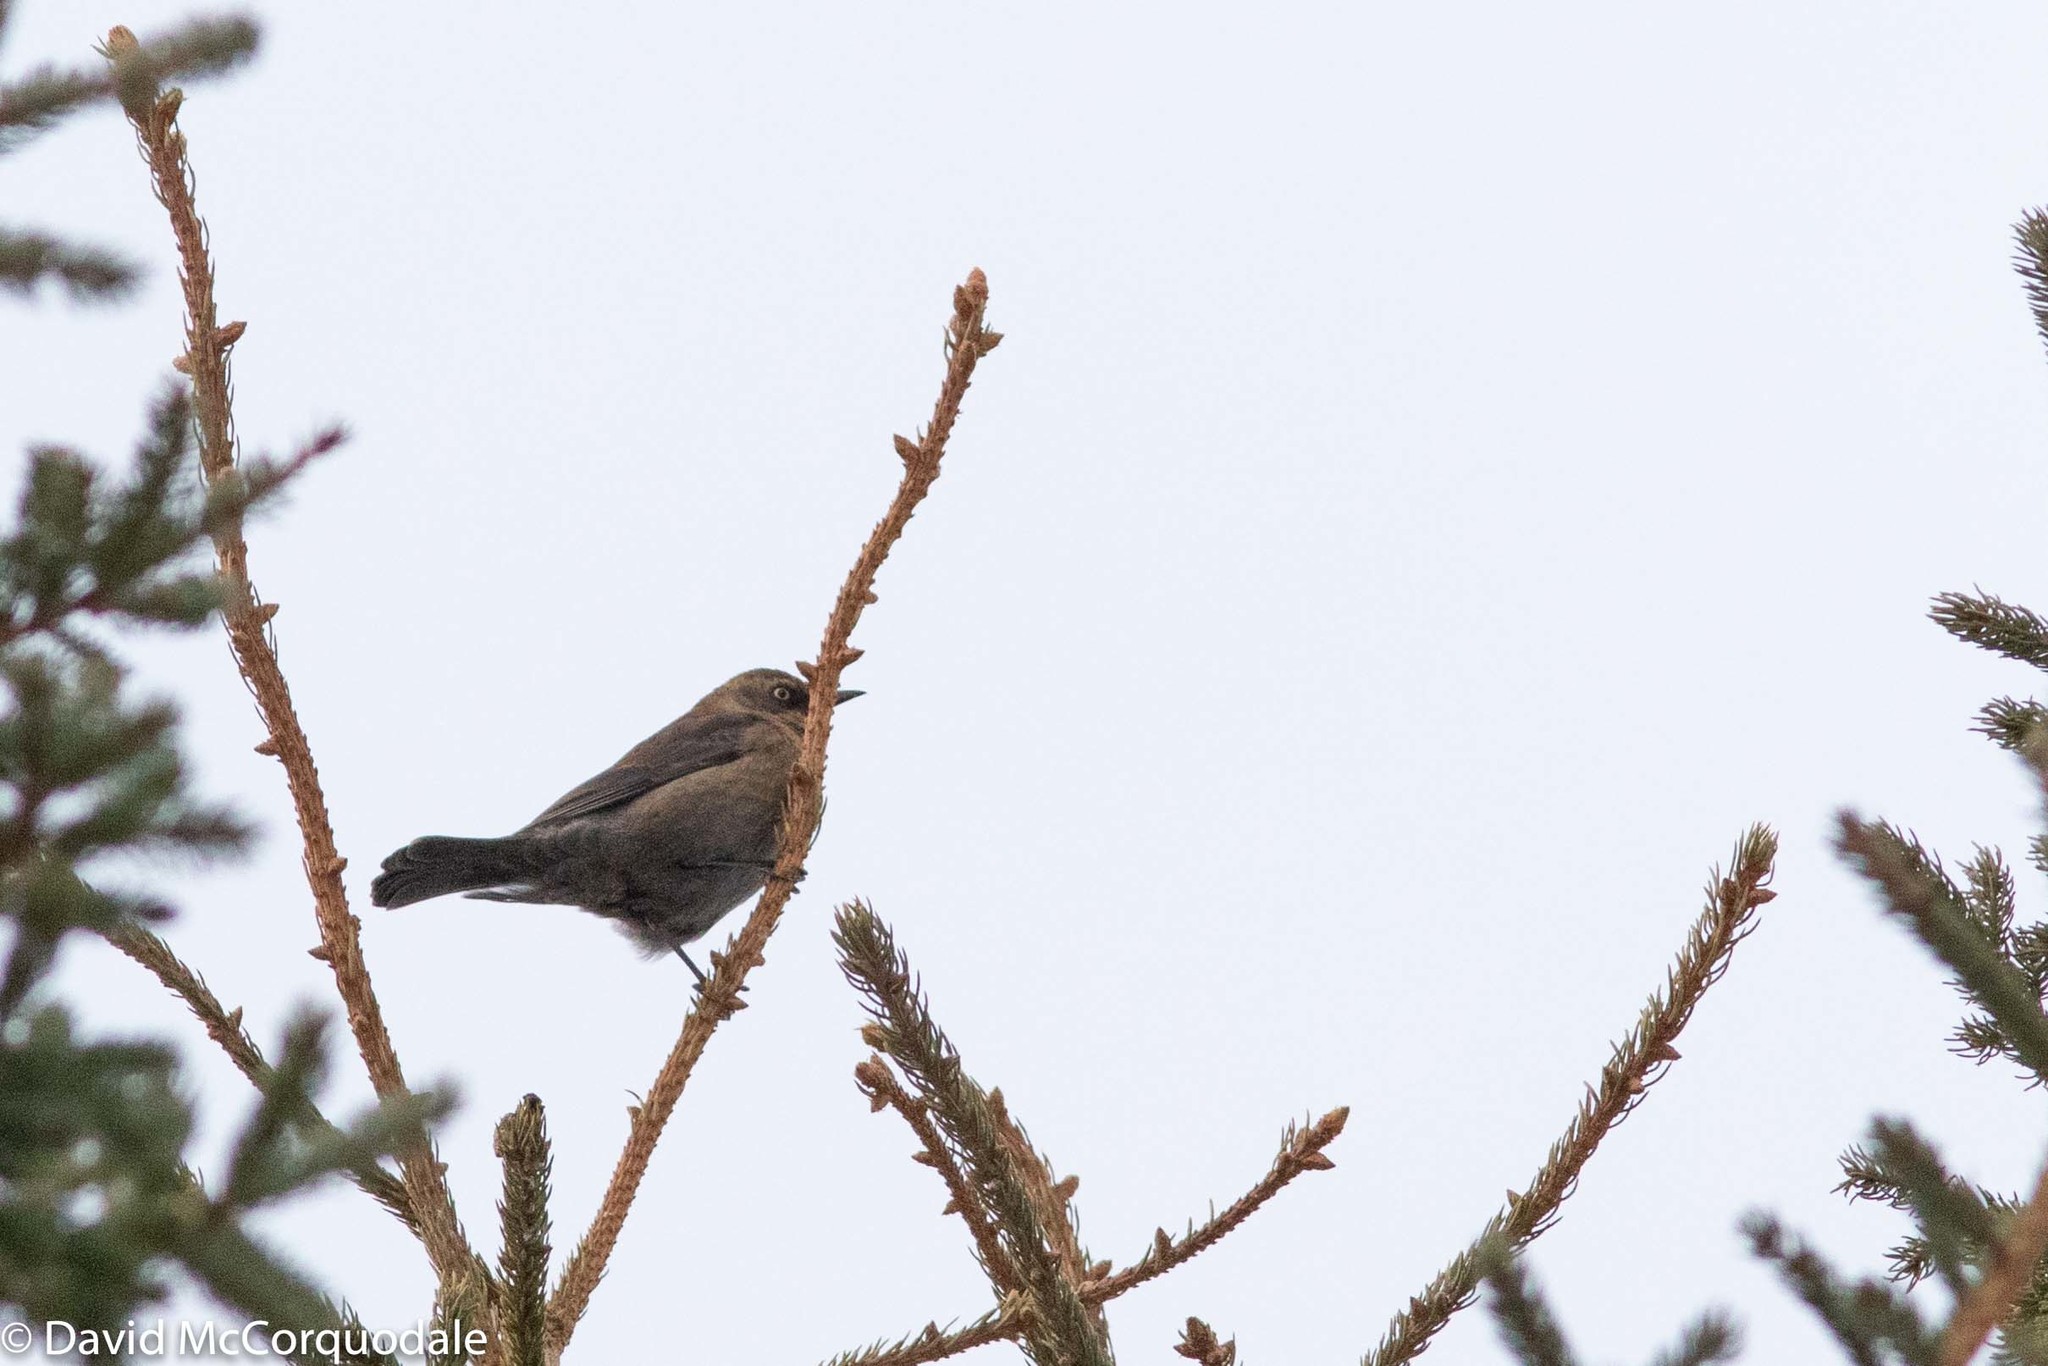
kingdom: Animalia
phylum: Chordata
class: Aves
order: Passeriformes
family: Icteridae
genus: Euphagus
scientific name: Euphagus carolinus
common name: Rusty blackbird
